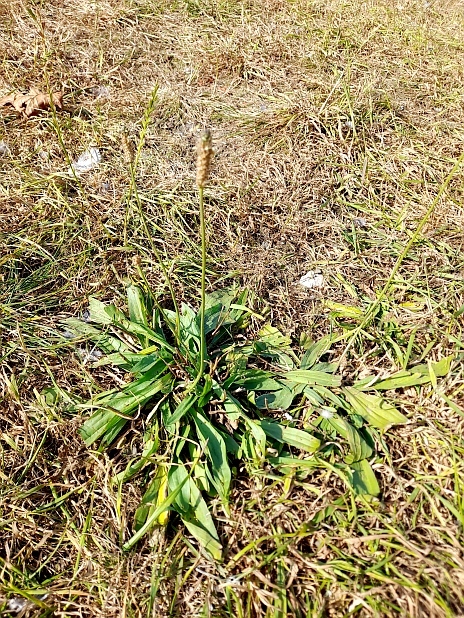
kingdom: Plantae
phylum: Tracheophyta
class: Magnoliopsida
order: Lamiales
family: Plantaginaceae
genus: Plantago
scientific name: Plantago lanceolata
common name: Ribwort plantain
